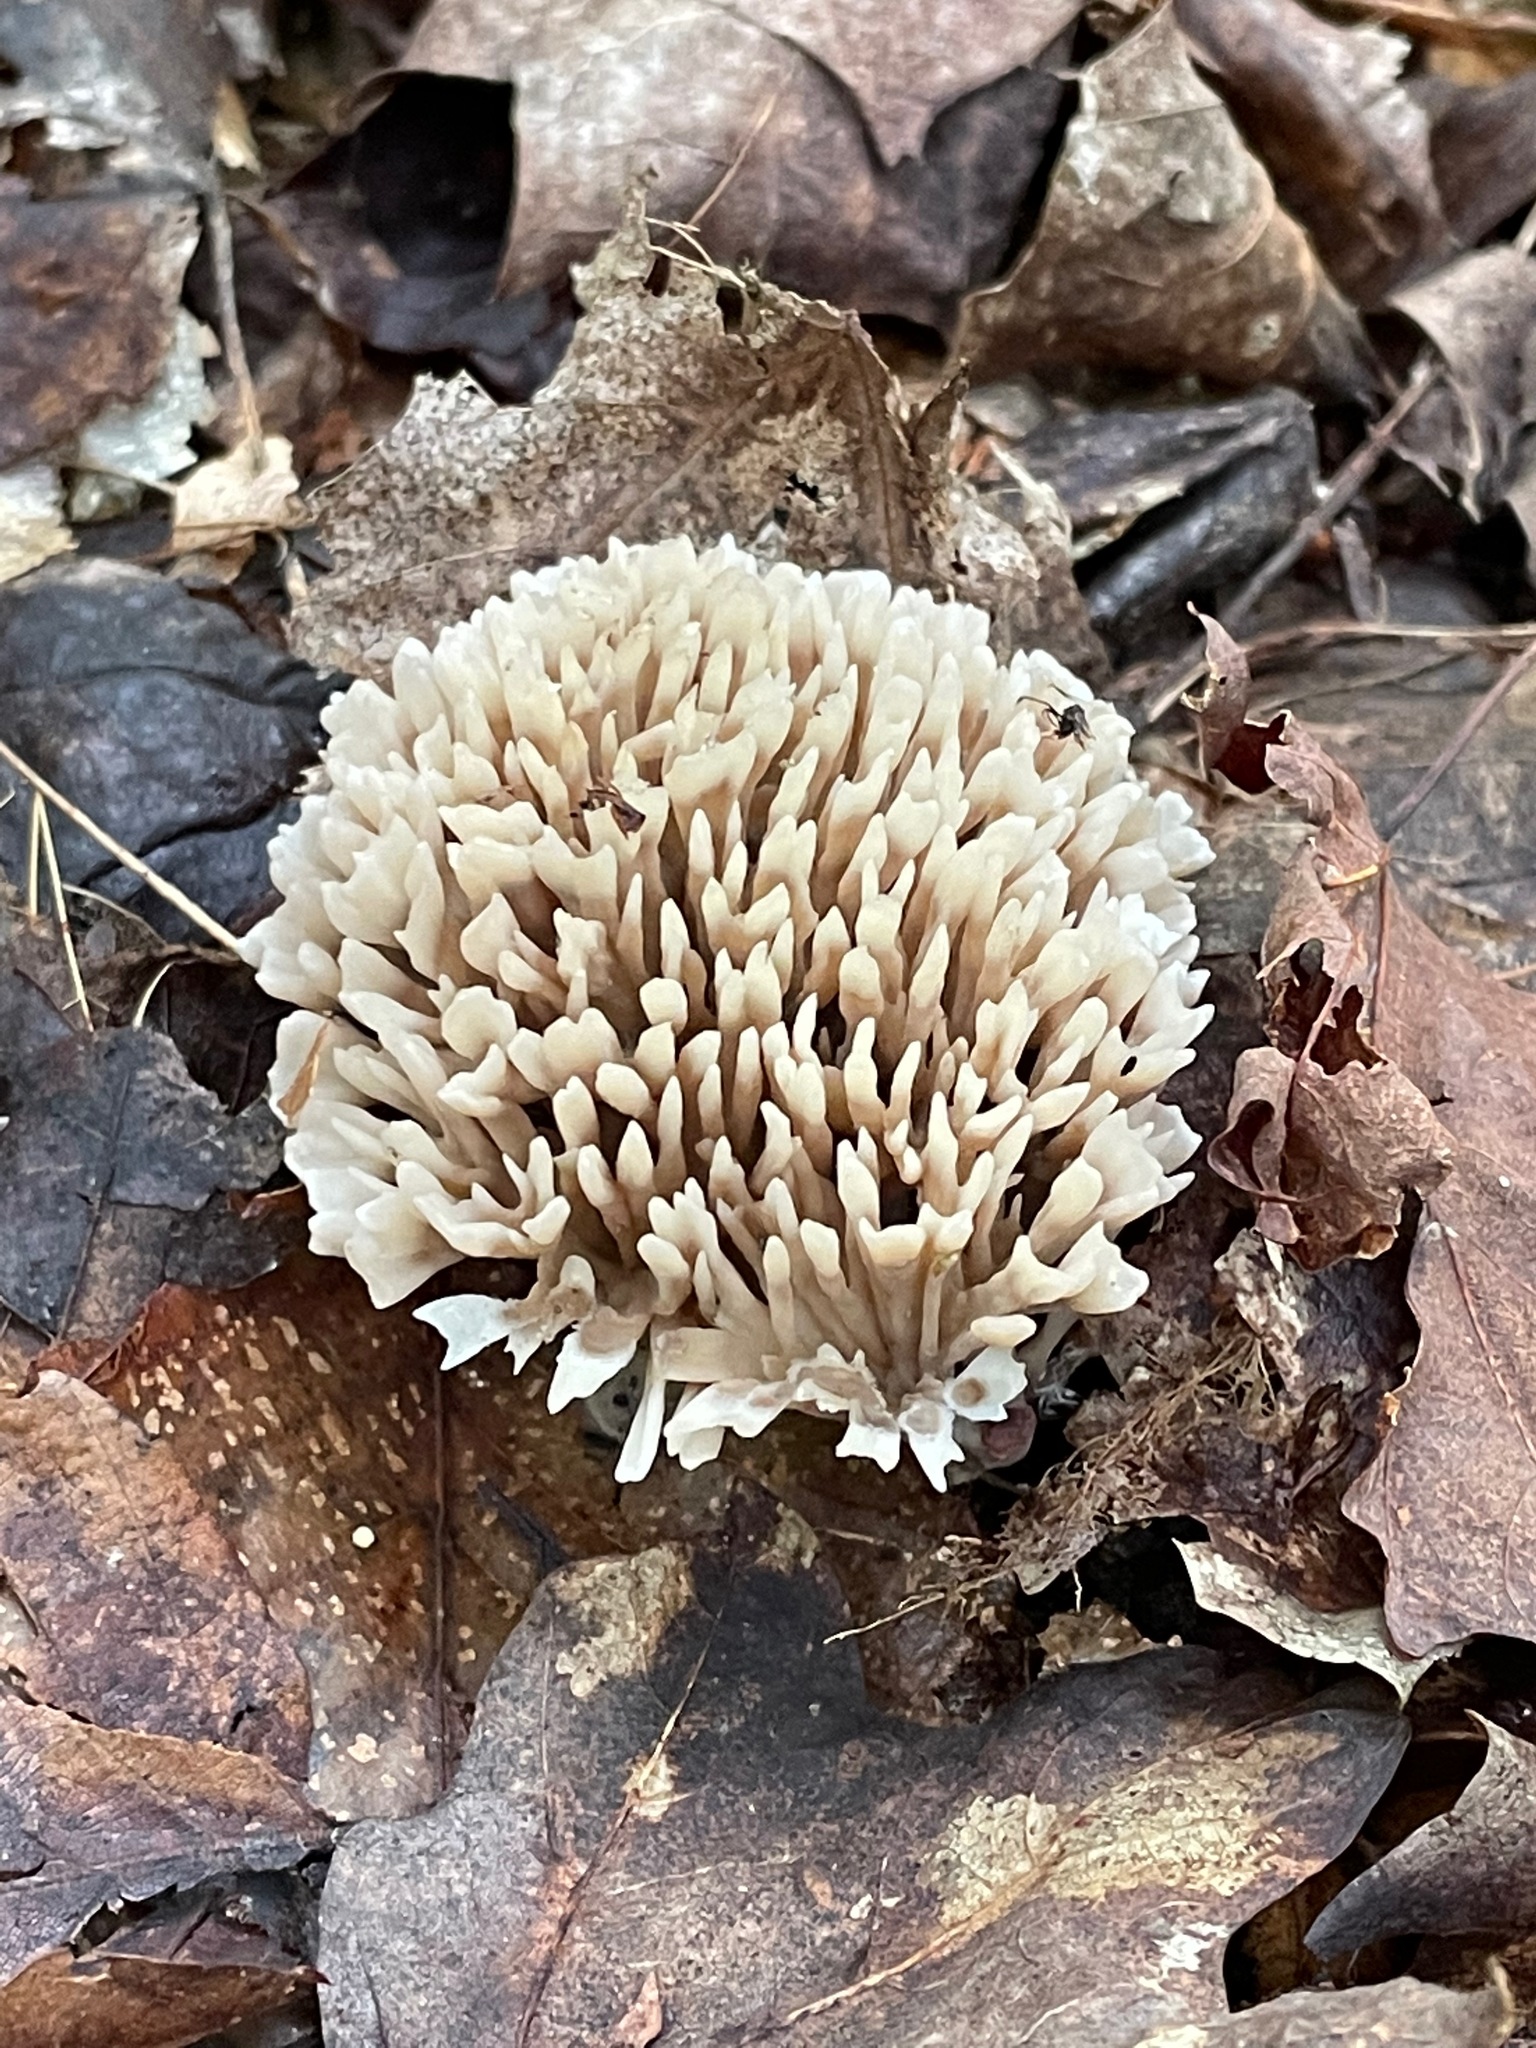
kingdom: Fungi
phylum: Basidiomycota
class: Agaricomycetes
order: Sebacinales
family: Sebacinaceae
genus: Sebacina
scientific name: Sebacina schweinitzii
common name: Jellied false coral fungus
